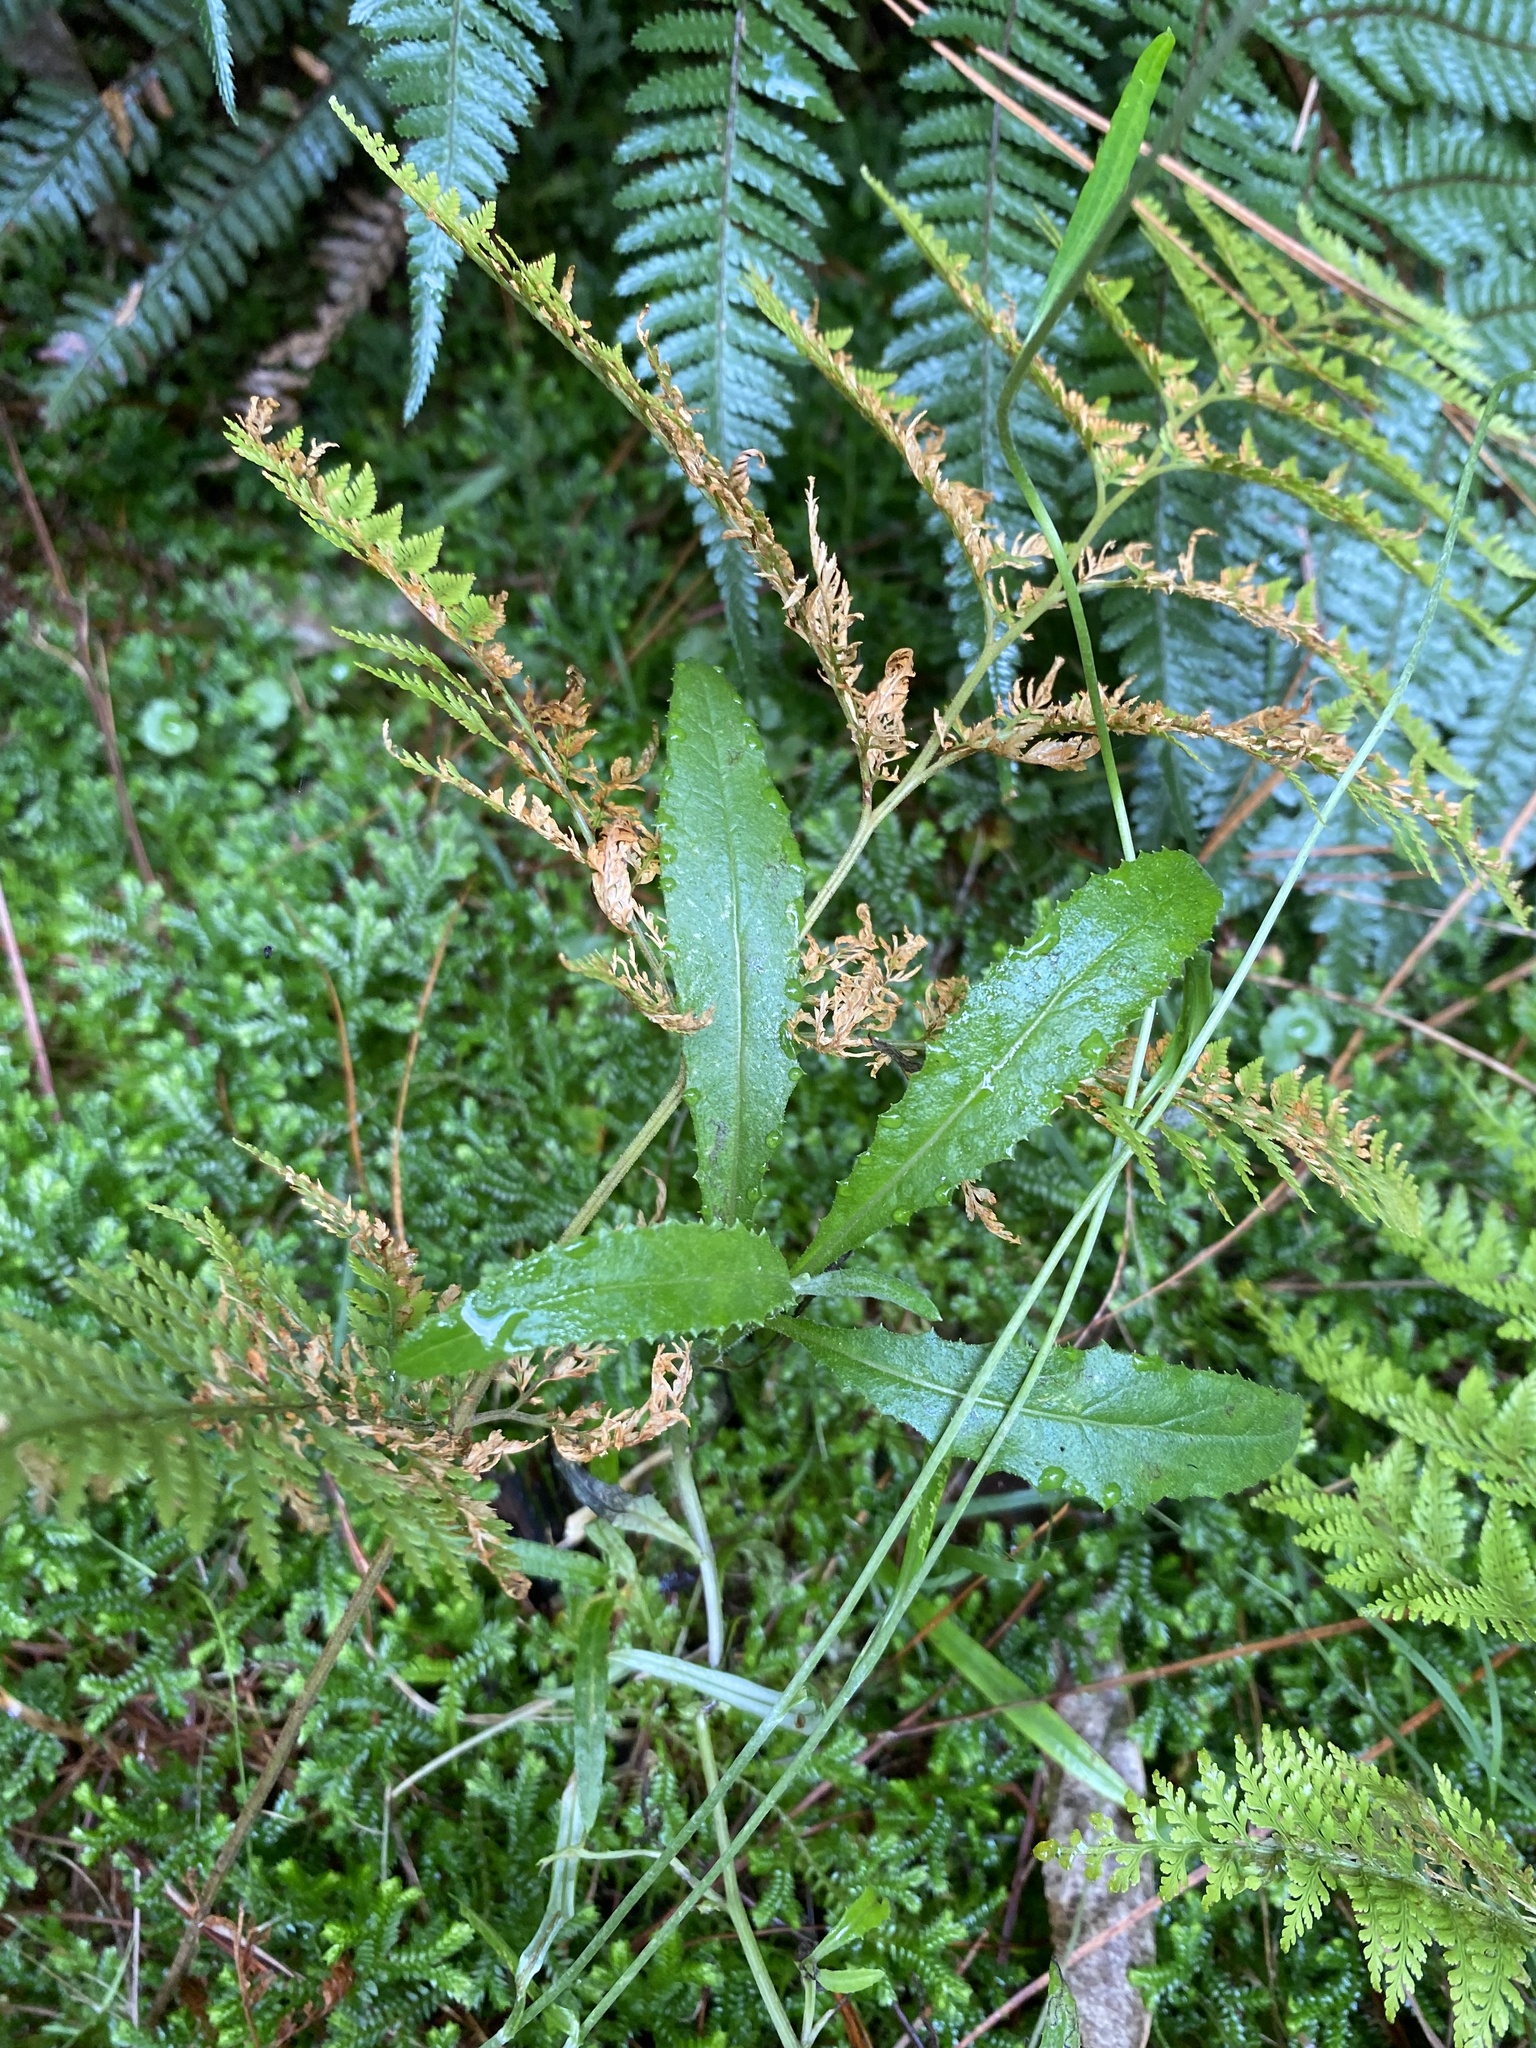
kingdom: Plantae
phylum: Tracheophyta
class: Magnoliopsida
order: Asterales
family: Asteraceae
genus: Senecio
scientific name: Senecio minimus
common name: Toothed fireweed
